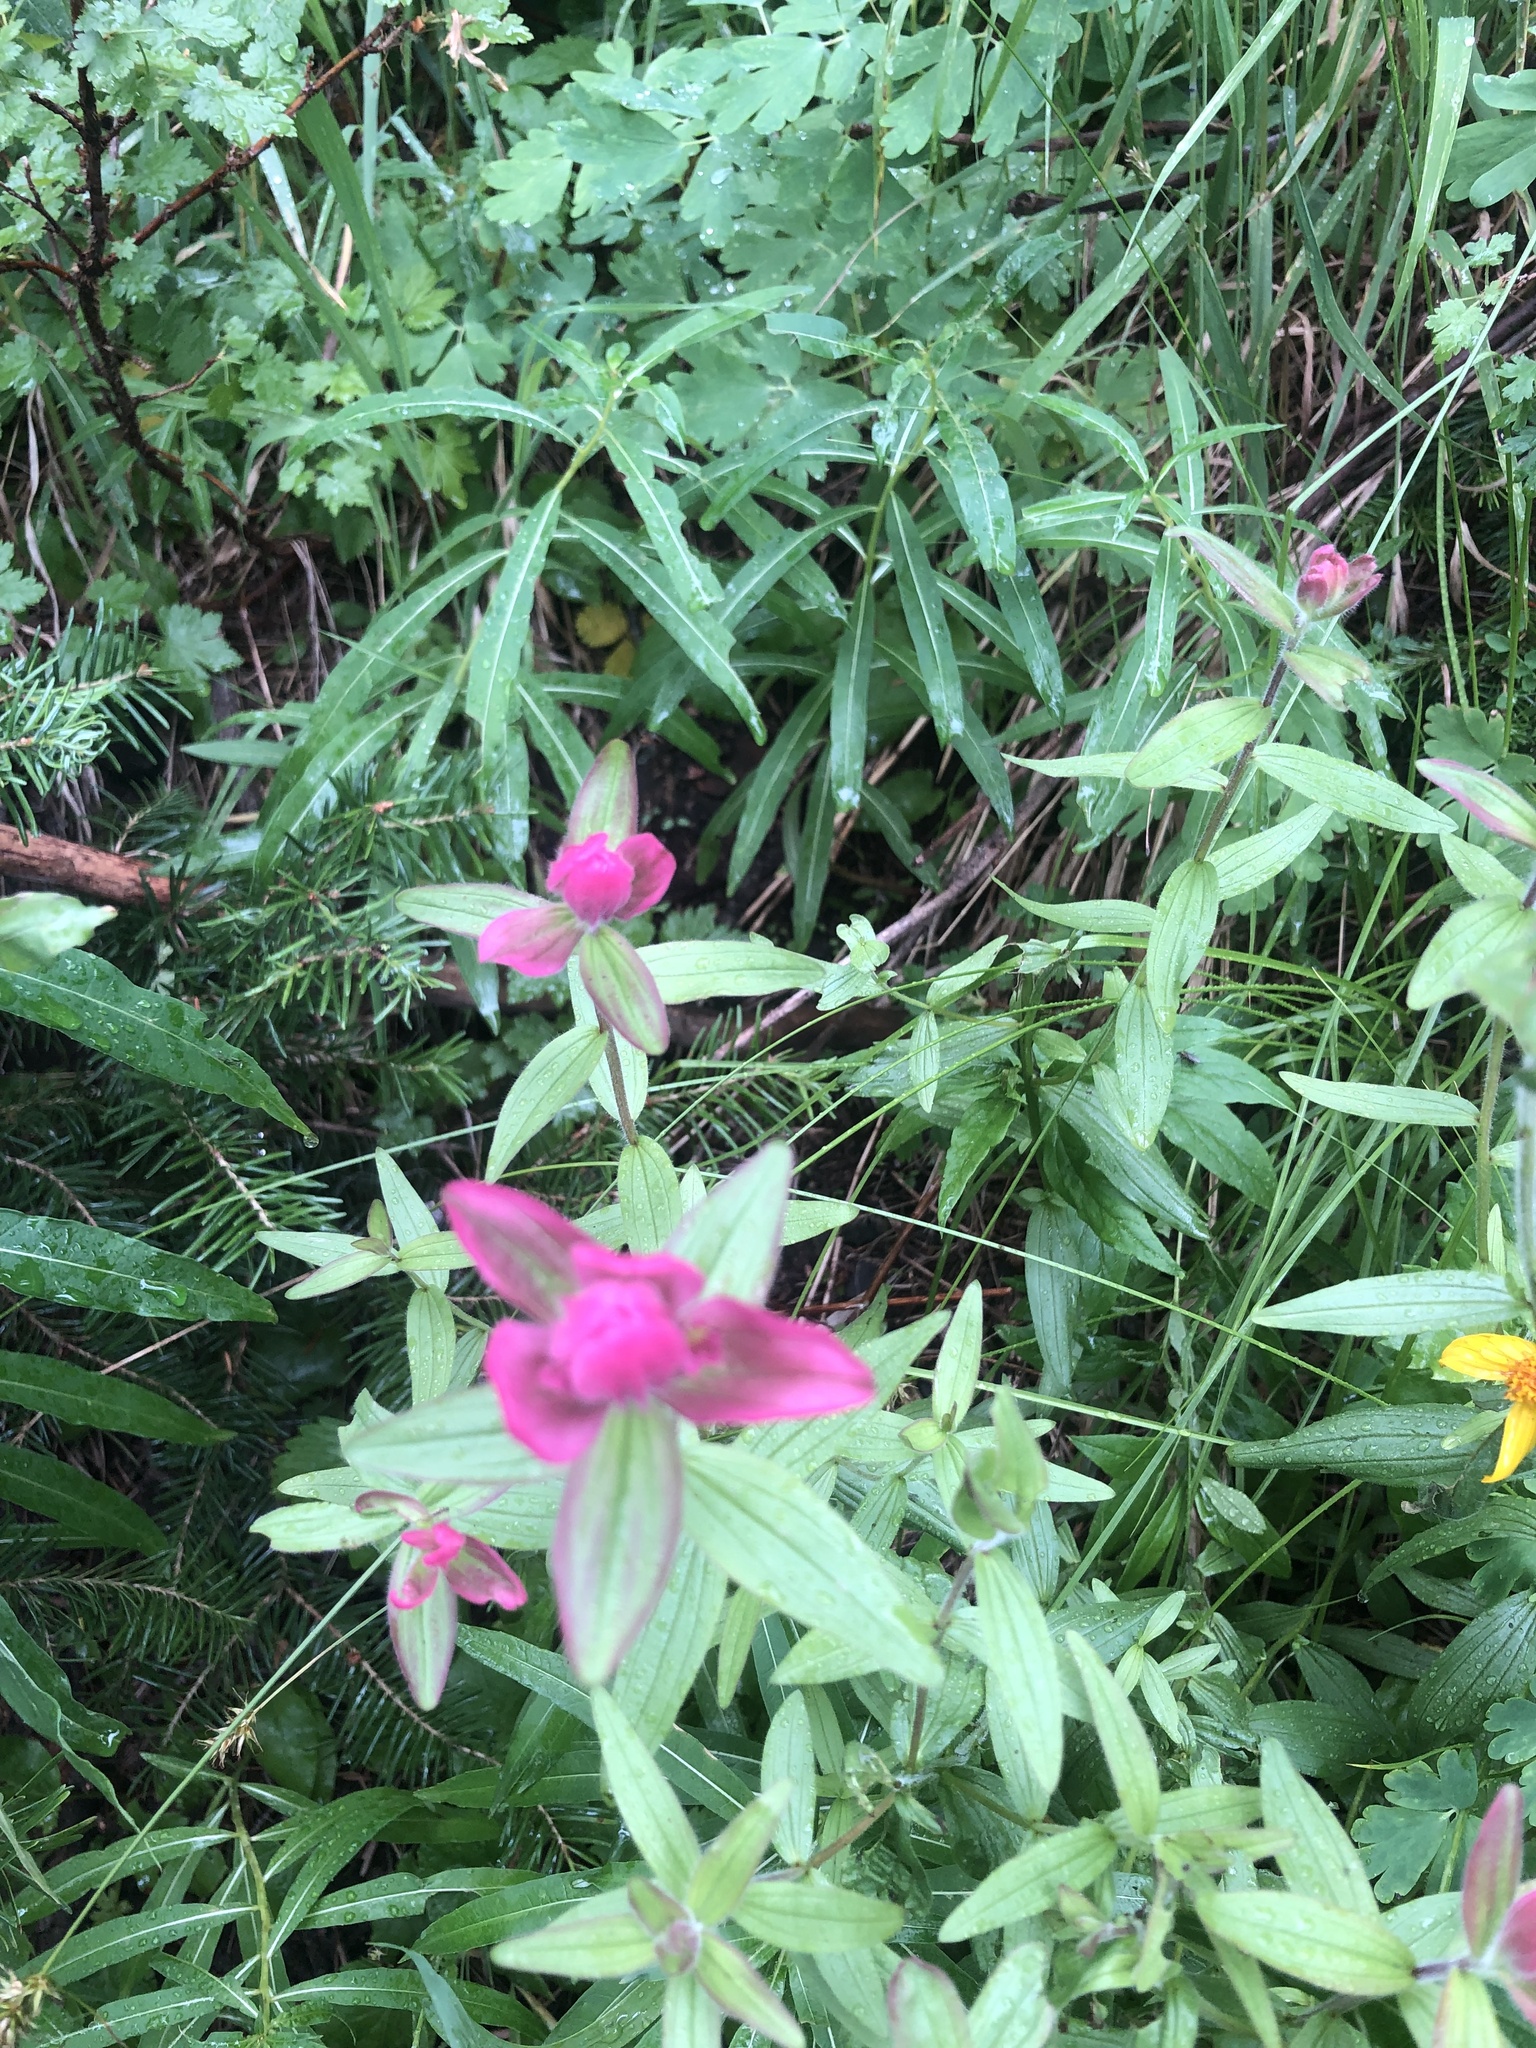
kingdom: Plantae
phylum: Tracheophyta
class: Magnoliopsida
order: Lamiales
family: Orobanchaceae
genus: Castilleja
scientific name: Castilleja rhexifolia
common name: Rocky mountain paintbrush
